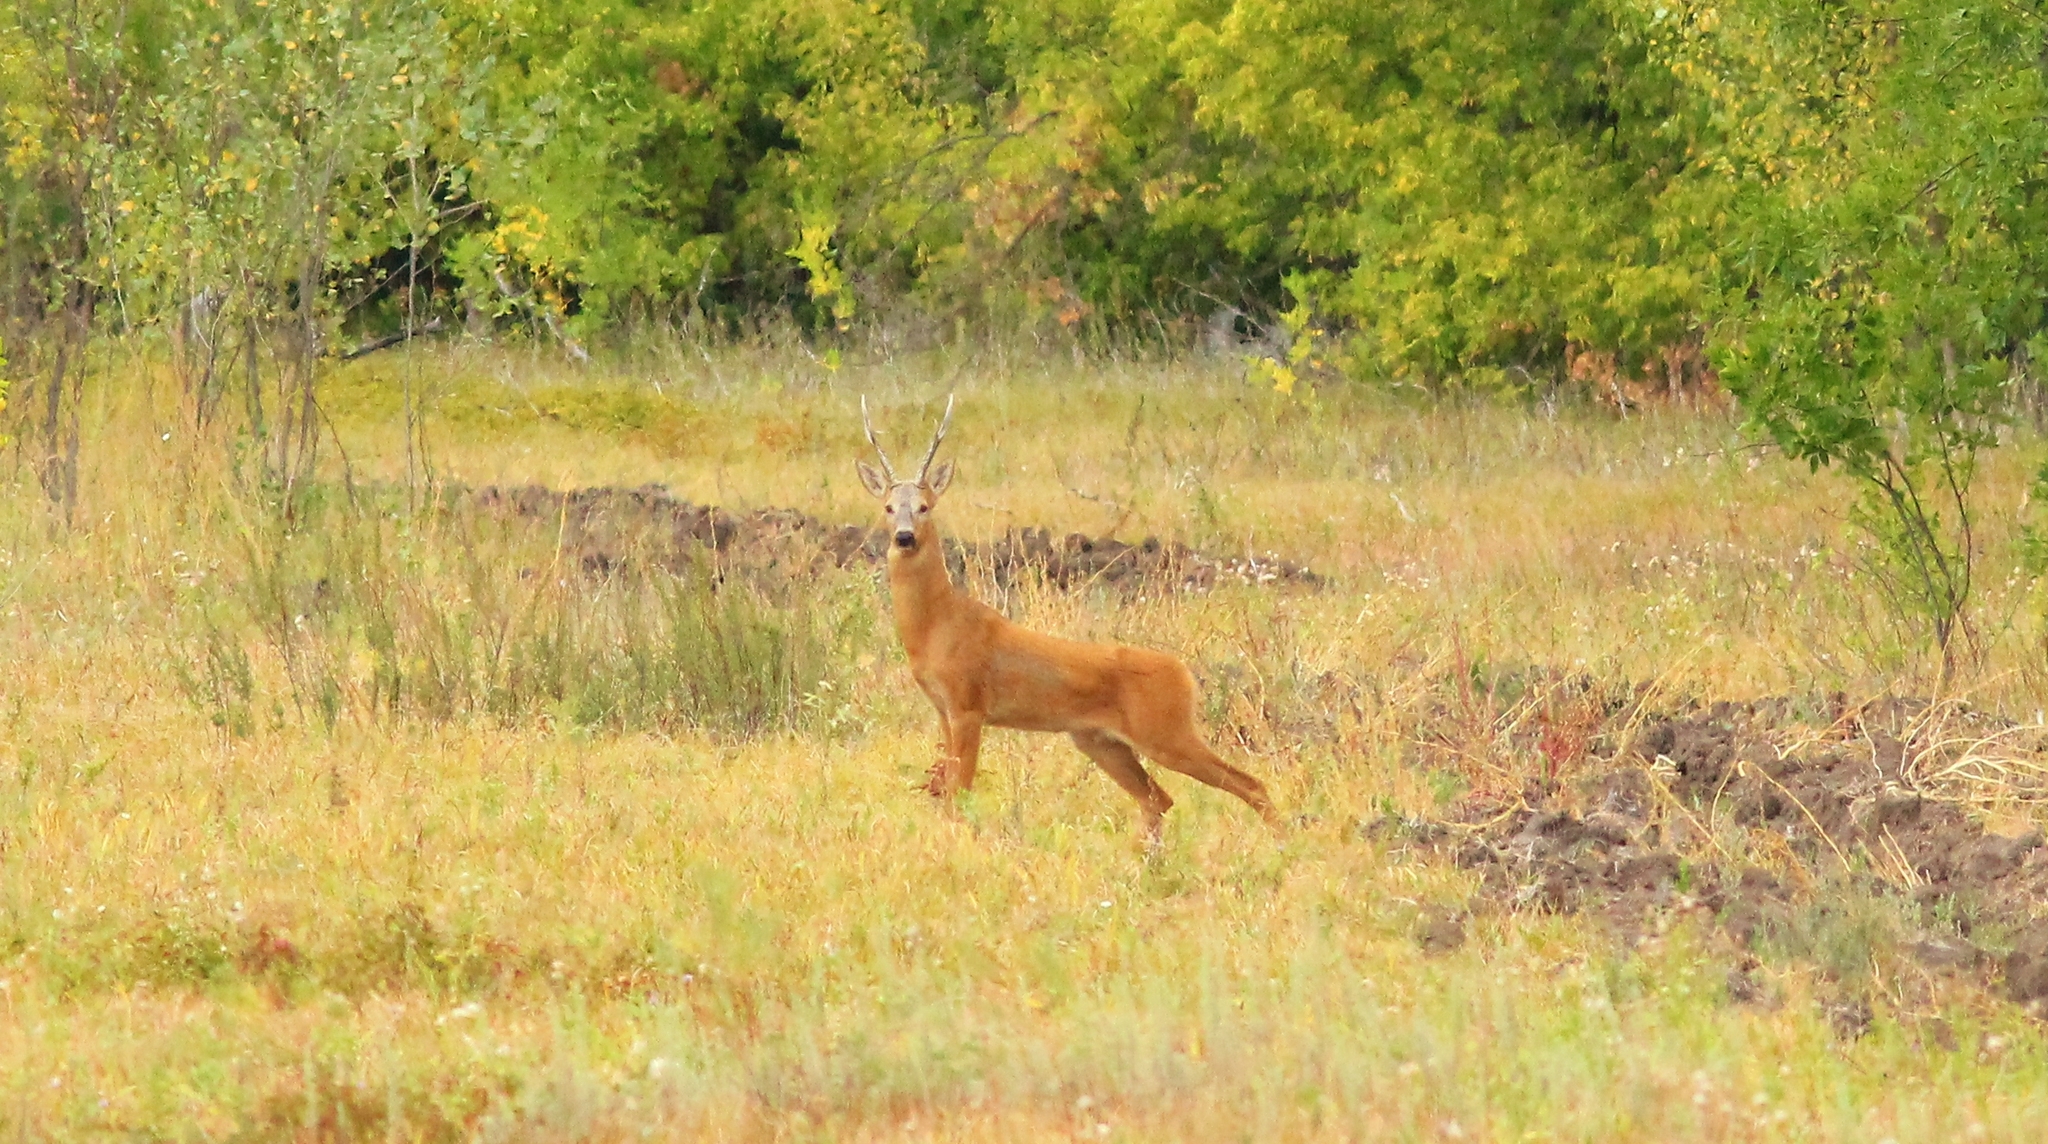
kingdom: Animalia
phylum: Chordata
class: Mammalia
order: Artiodactyla
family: Cervidae
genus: Capreolus
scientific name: Capreolus pygargus
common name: Siberian roe
